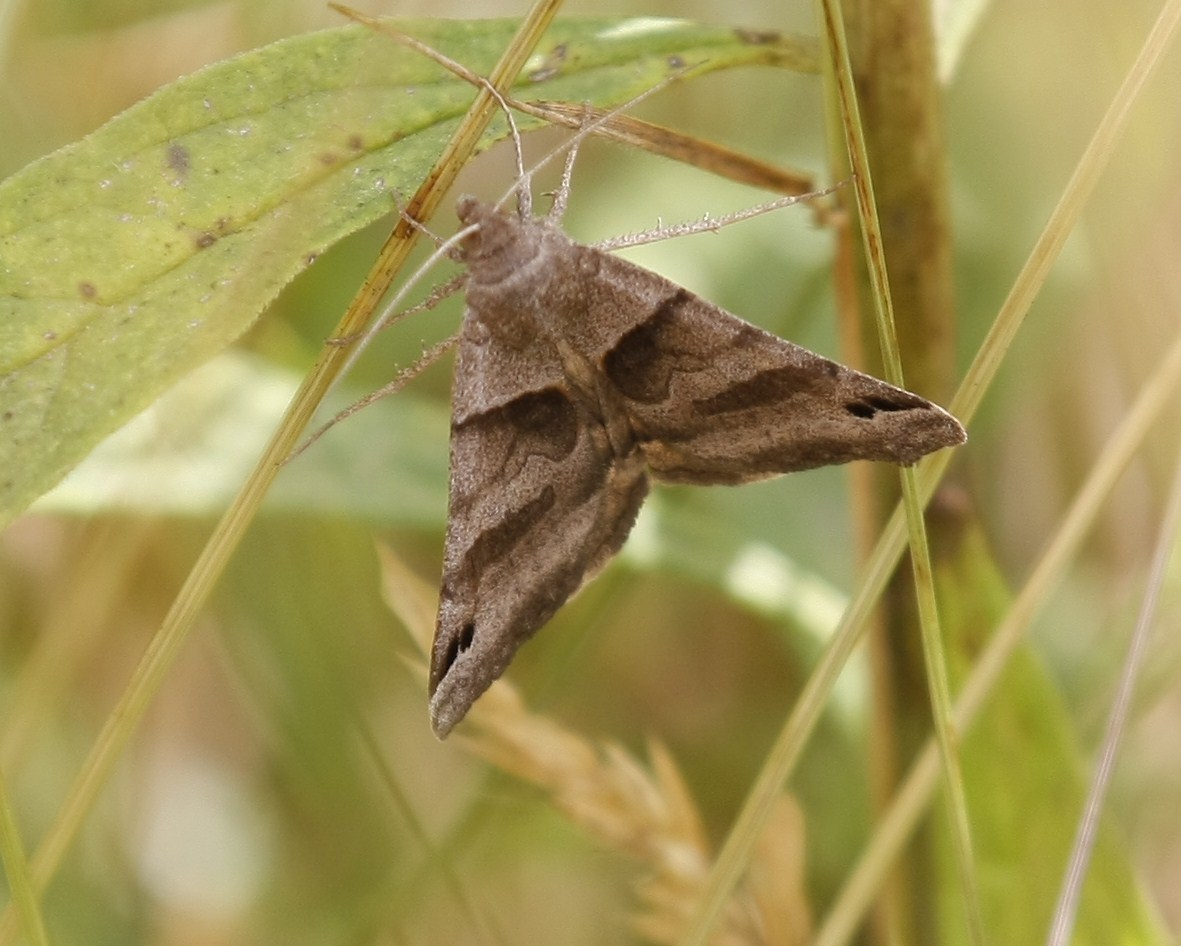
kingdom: Animalia
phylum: Arthropoda
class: Insecta
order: Lepidoptera
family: Erebidae
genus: Caenurgina
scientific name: Caenurgina erechtea
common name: Forage looper moth
